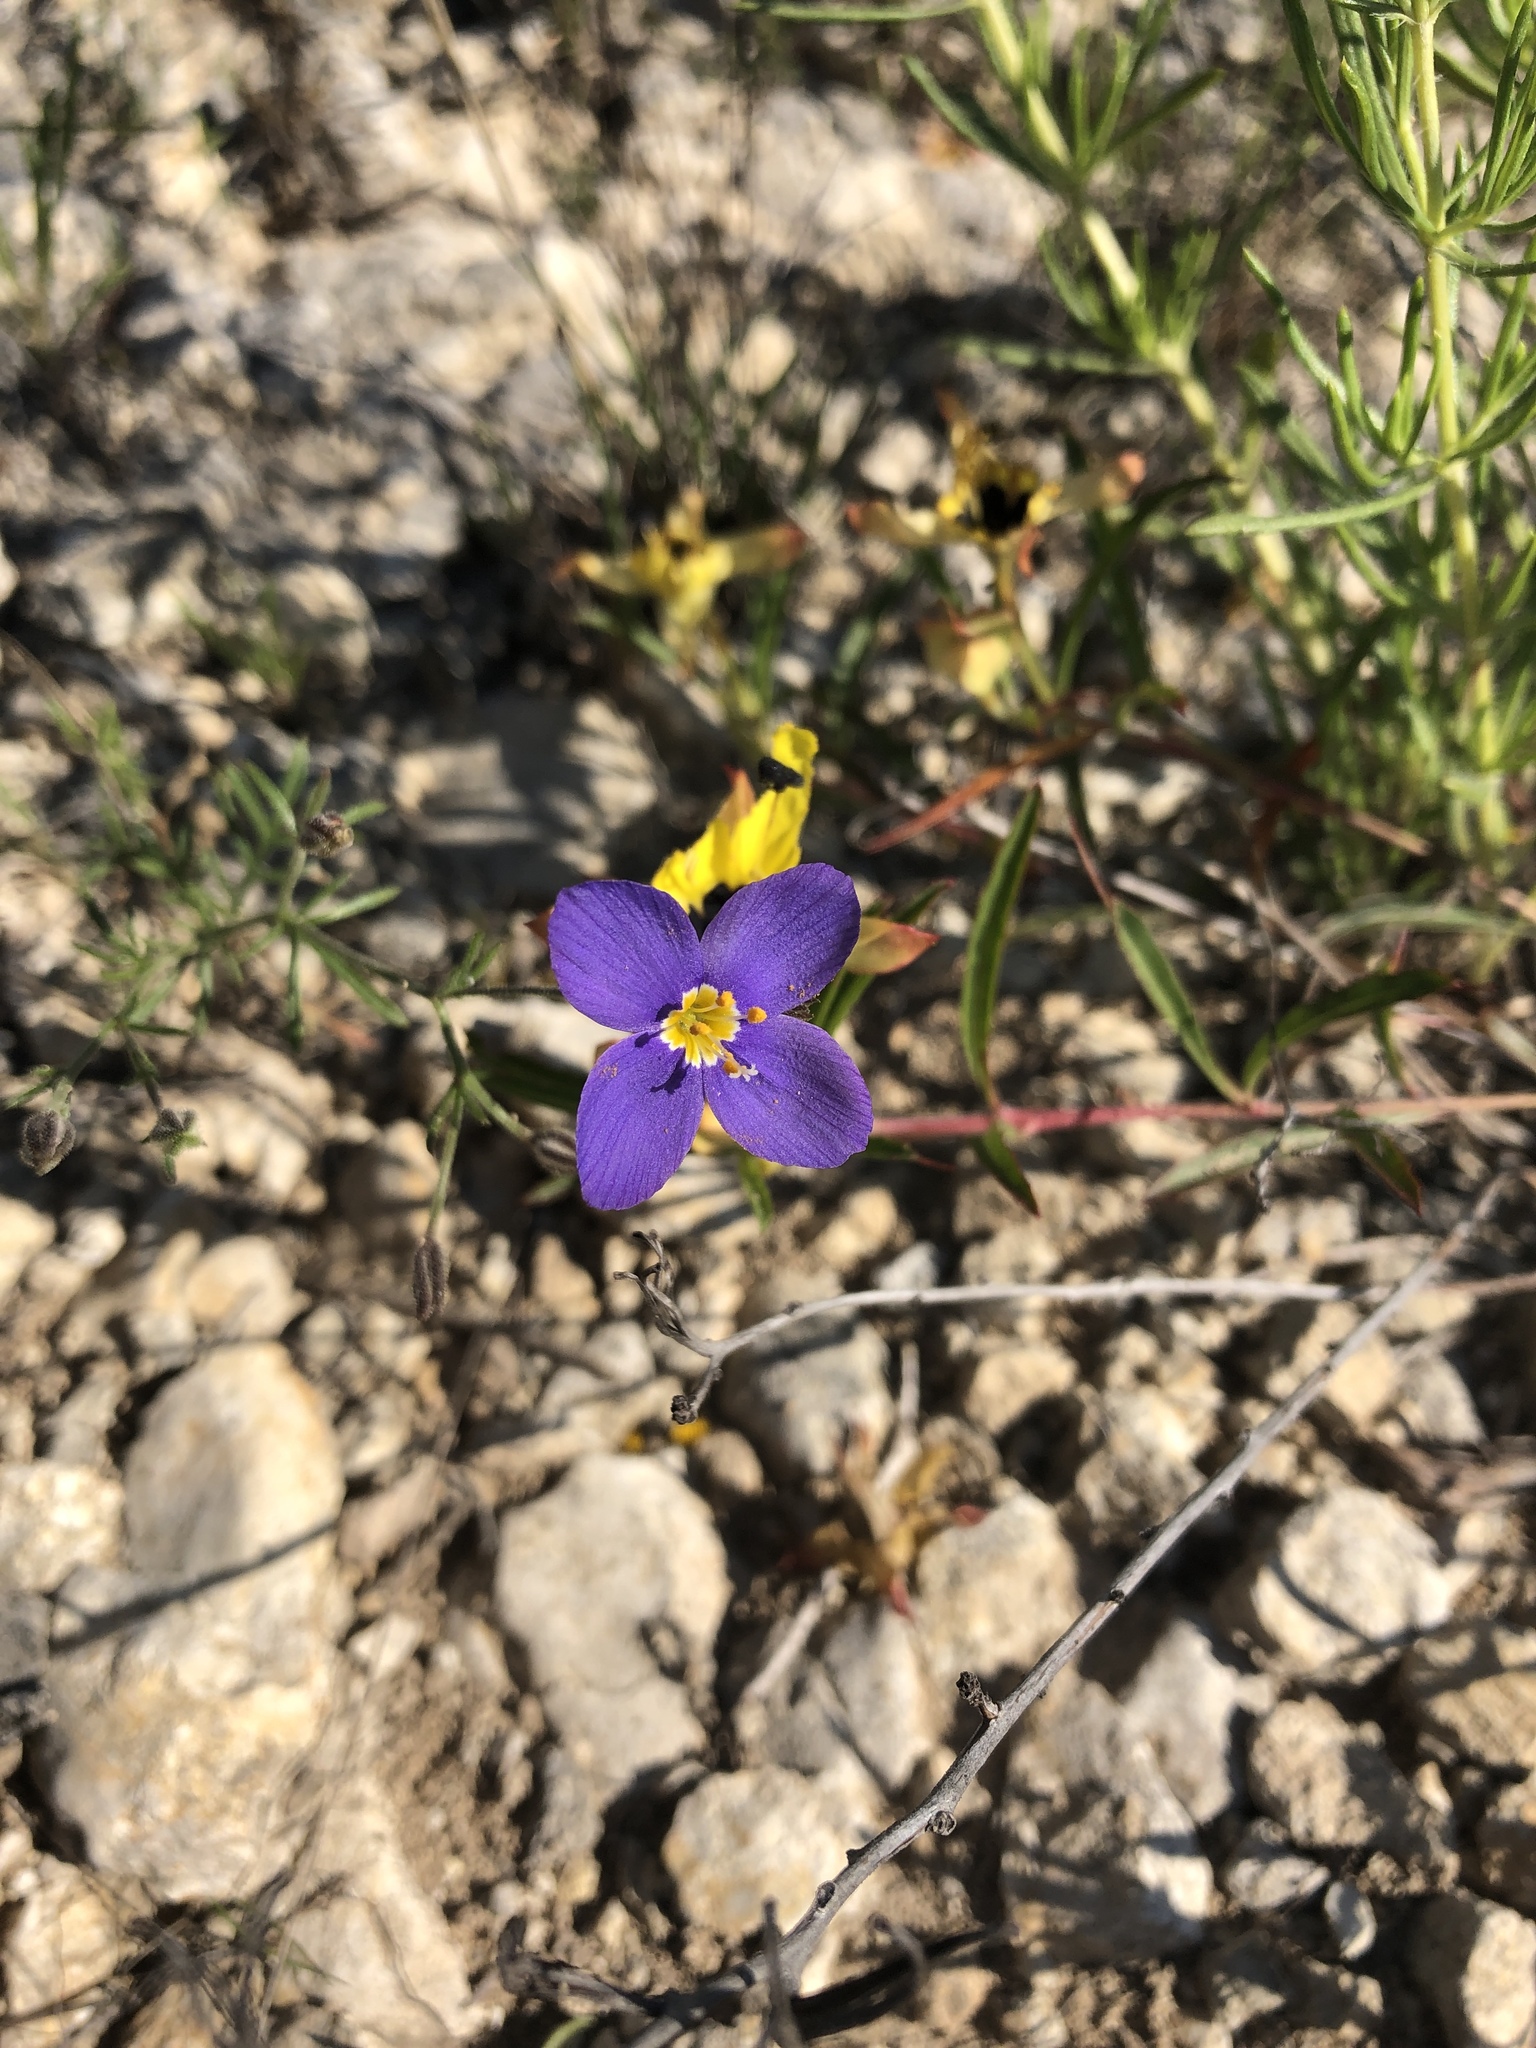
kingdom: Plantae
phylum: Tracheophyta
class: Magnoliopsida
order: Ericales
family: Polemoniaceae
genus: Giliastrum
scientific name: Giliastrum rigidulum
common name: Bluebowls
